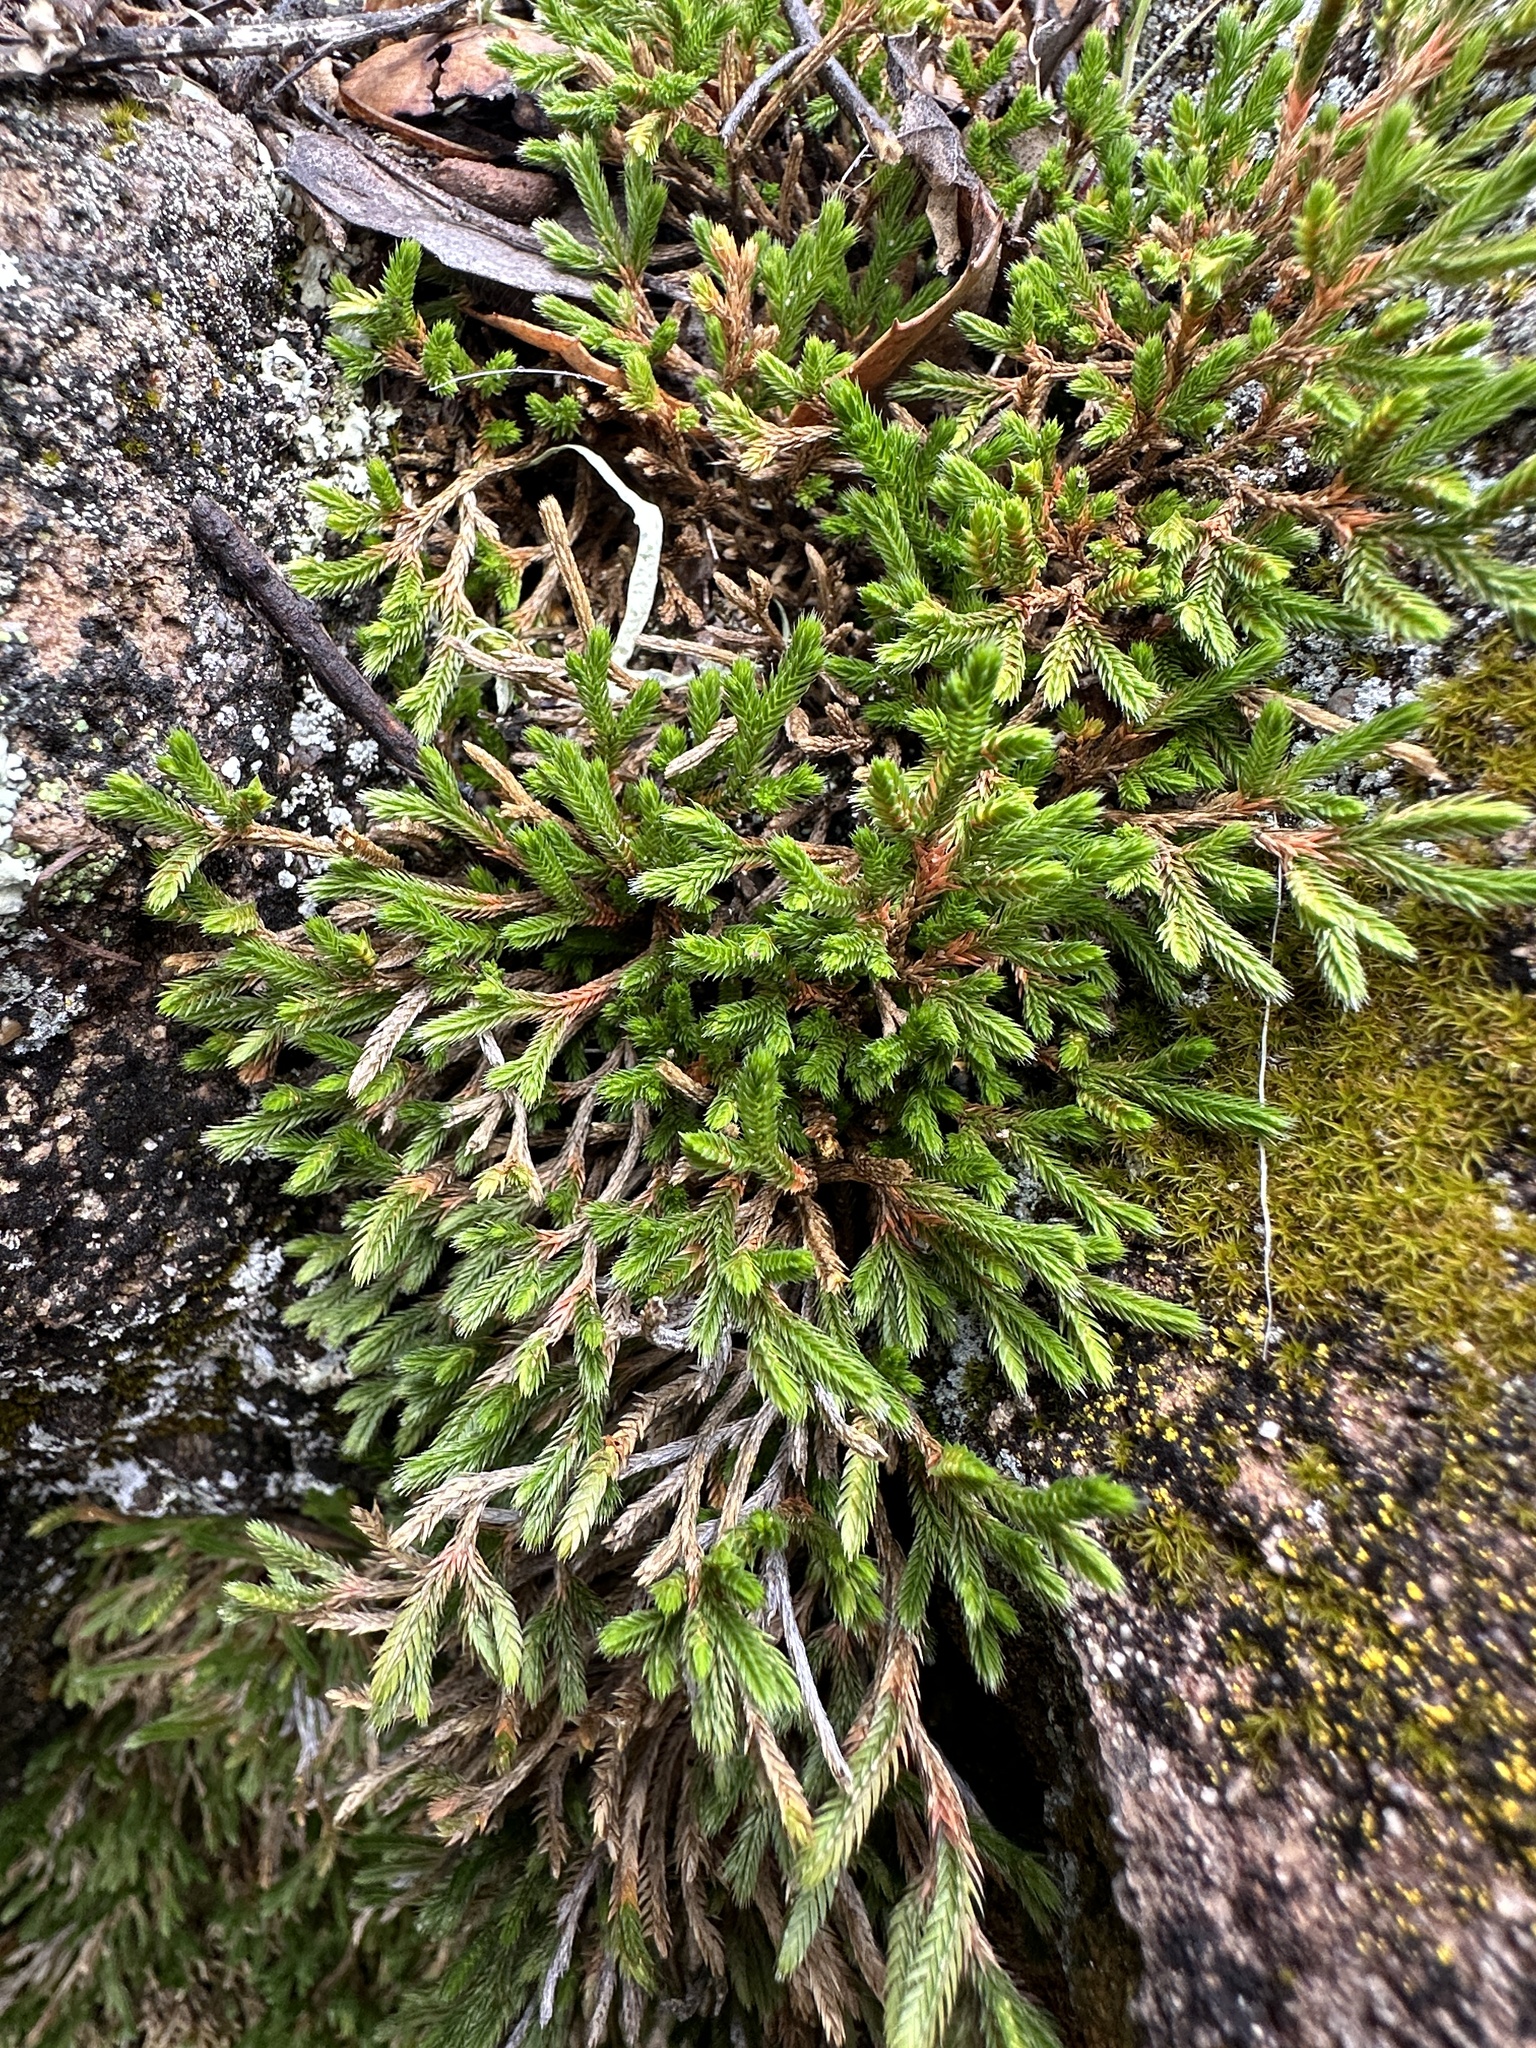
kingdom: Plantae
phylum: Tracheophyta
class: Lycopodiopsida
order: Selaginellales
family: Selaginellaceae
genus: Selaginella
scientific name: Selaginella bigelovii
